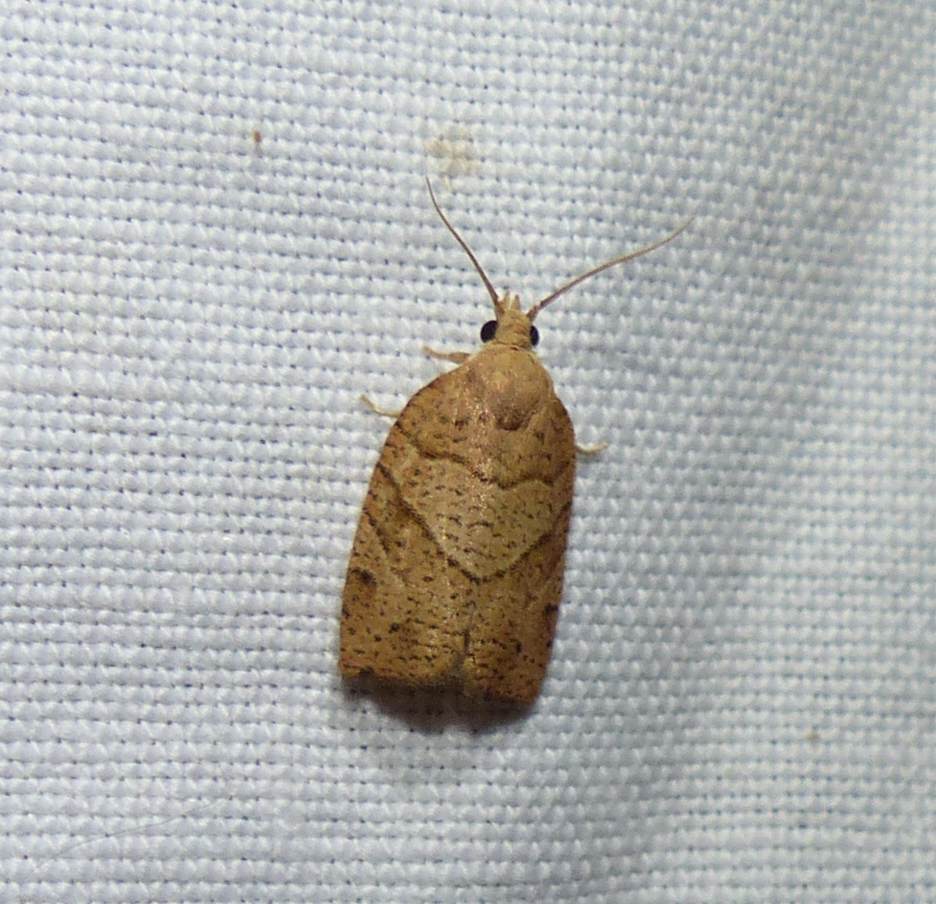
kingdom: Animalia
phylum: Arthropoda
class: Insecta
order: Lepidoptera
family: Tortricidae
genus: Pandemis
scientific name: Pandemis lamprosana
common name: Woodgrain leafroller moth
